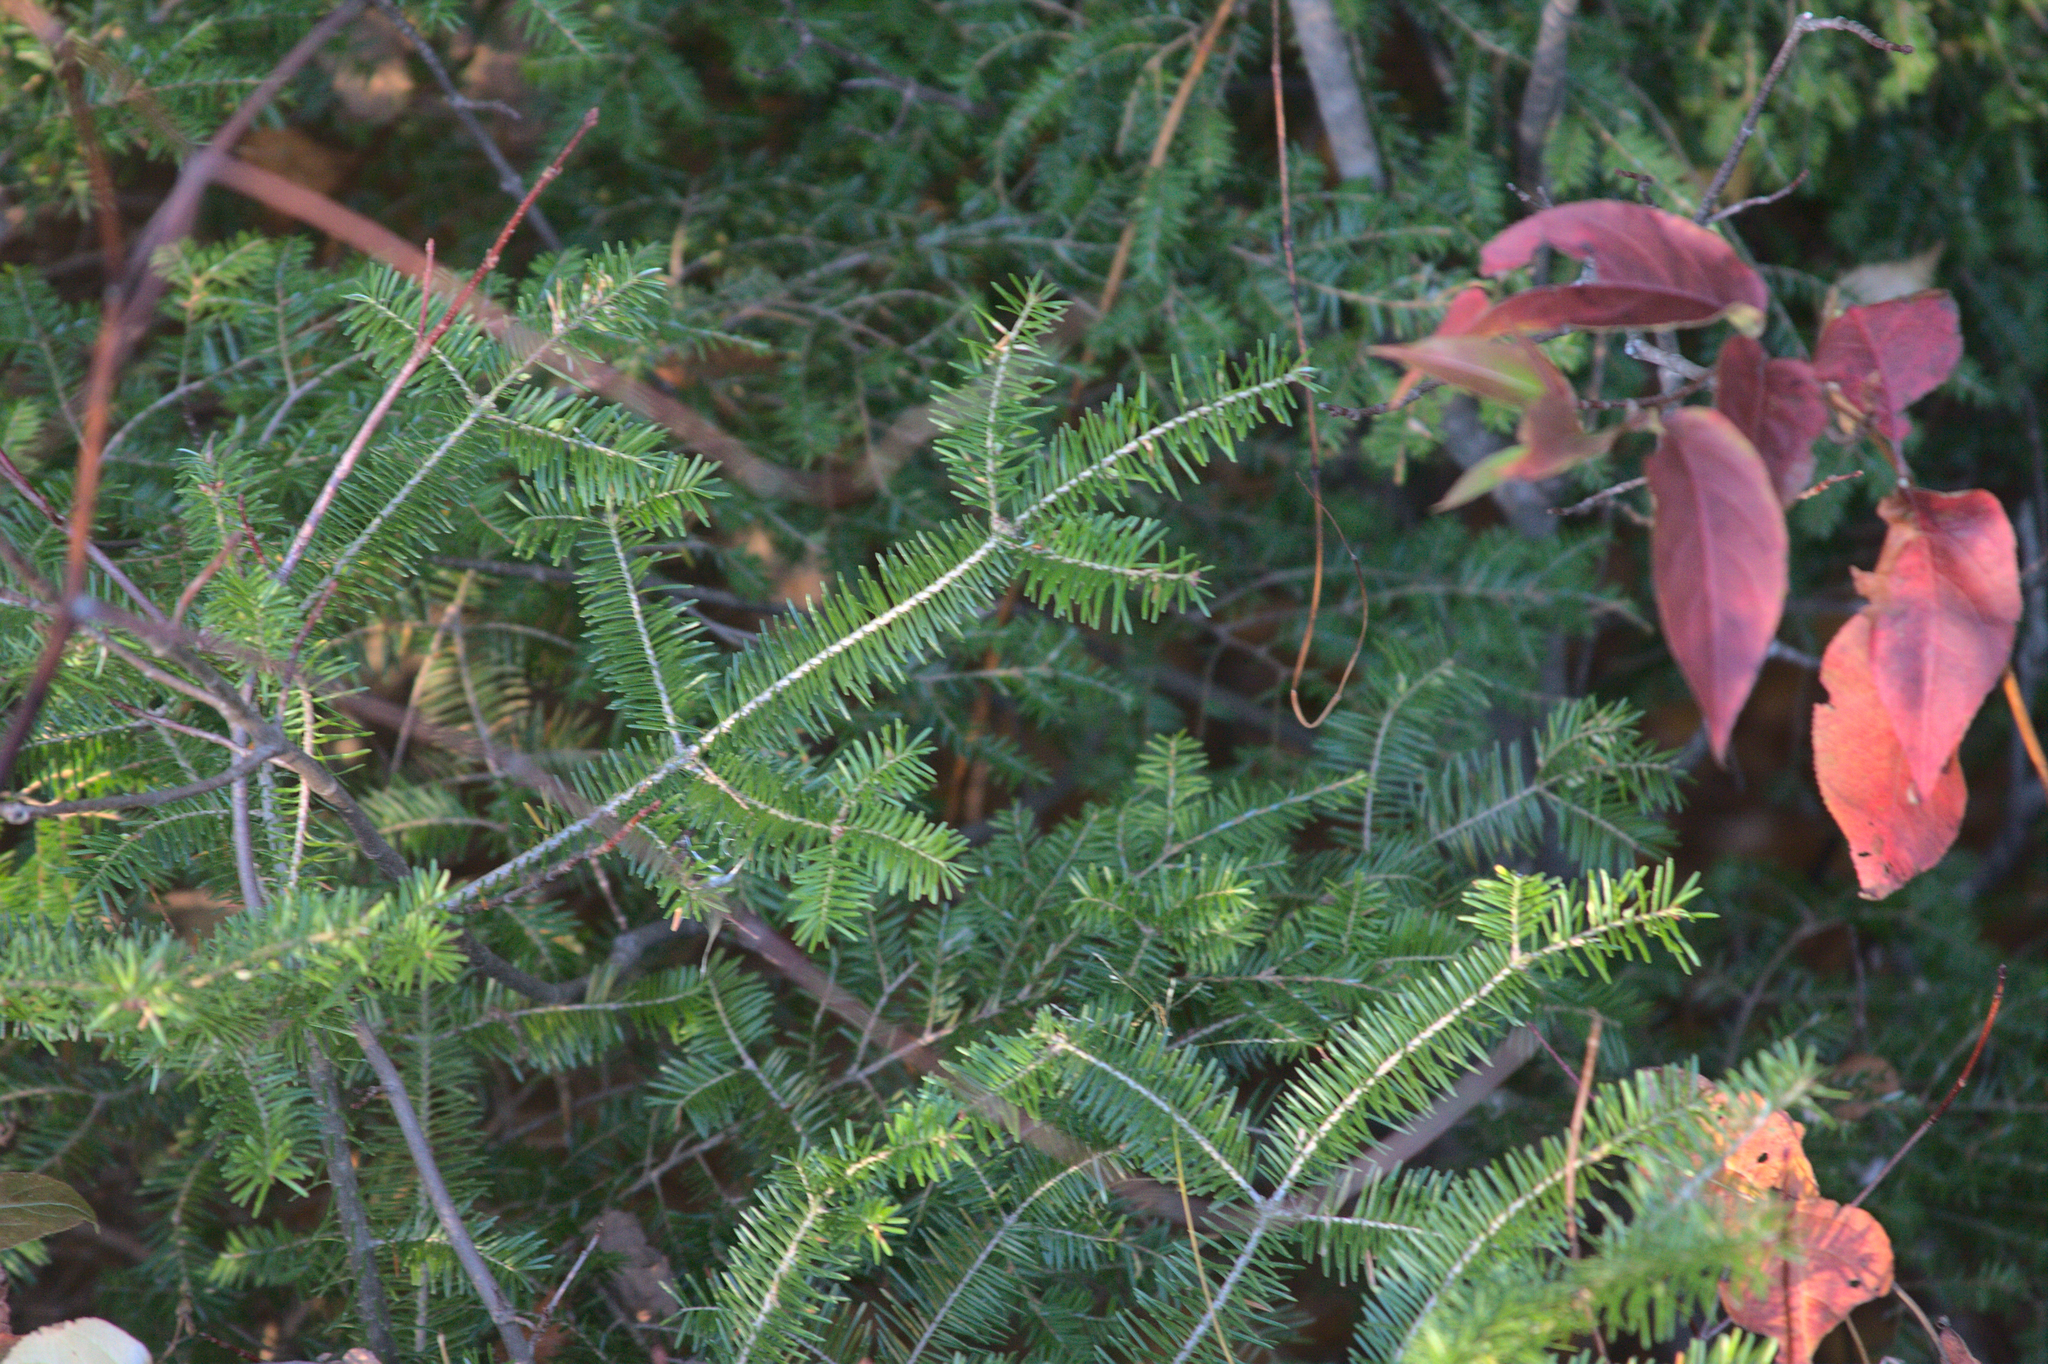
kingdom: Plantae
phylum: Tracheophyta
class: Pinopsida
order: Pinales
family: Pinaceae
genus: Abies
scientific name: Abies balsamea
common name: Balsam fir
